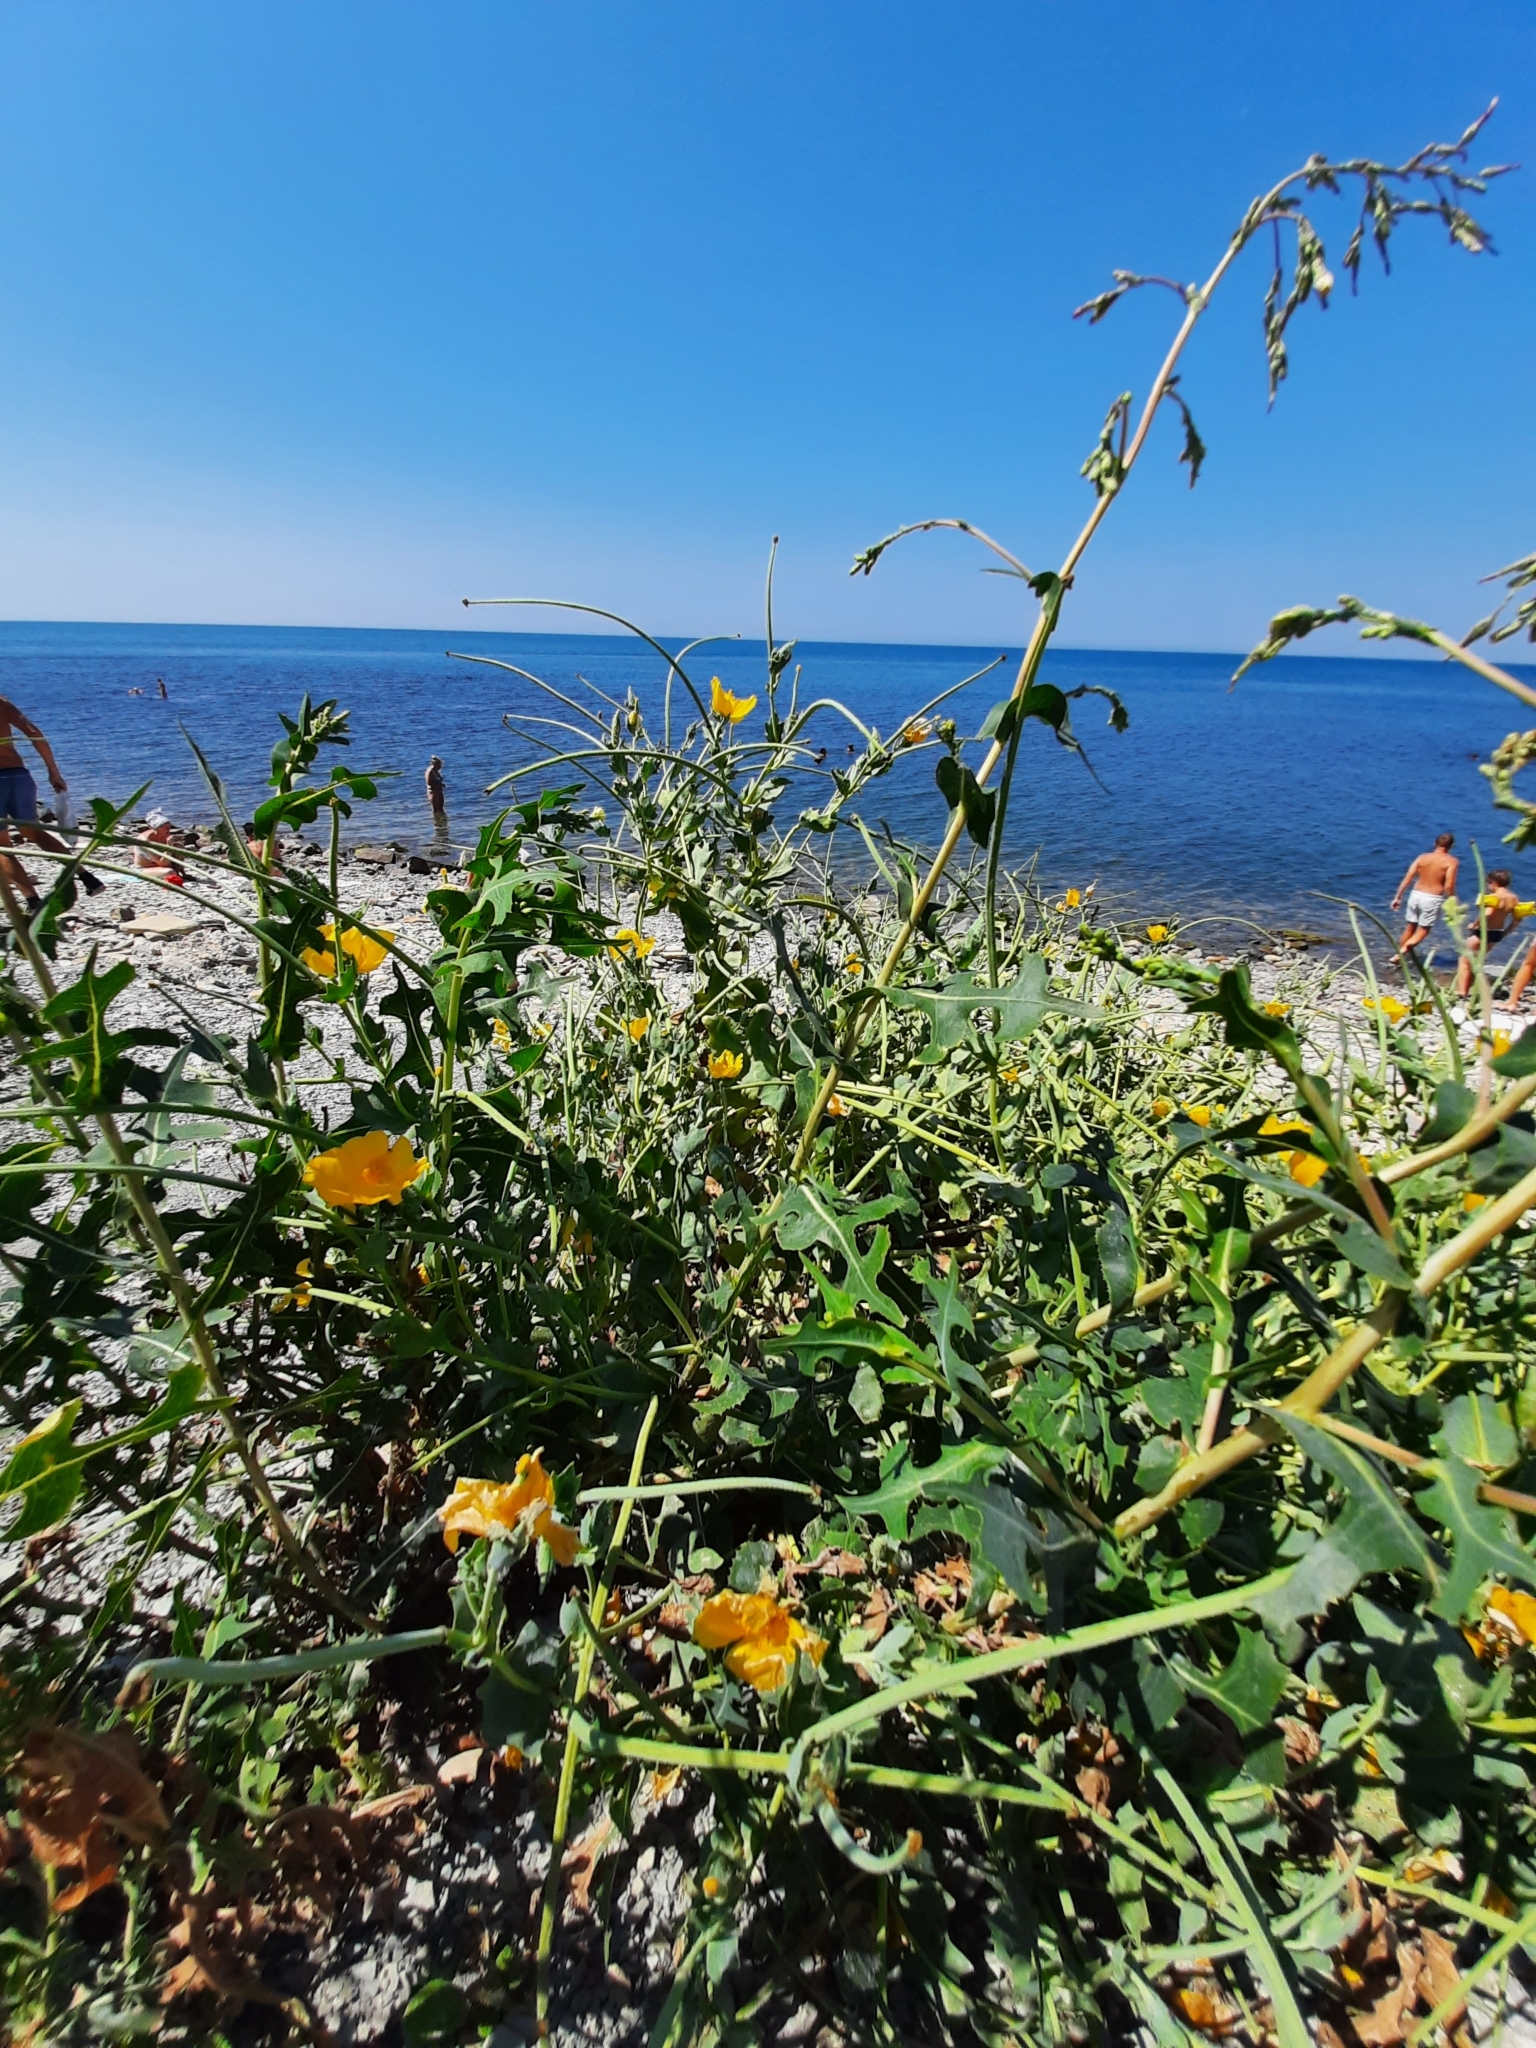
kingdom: Plantae
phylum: Tracheophyta
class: Magnoliopsida
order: Ranunculales
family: Papaveraceae
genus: Glaucium
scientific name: Glaucium flavum
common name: Yellow horned-poppy
